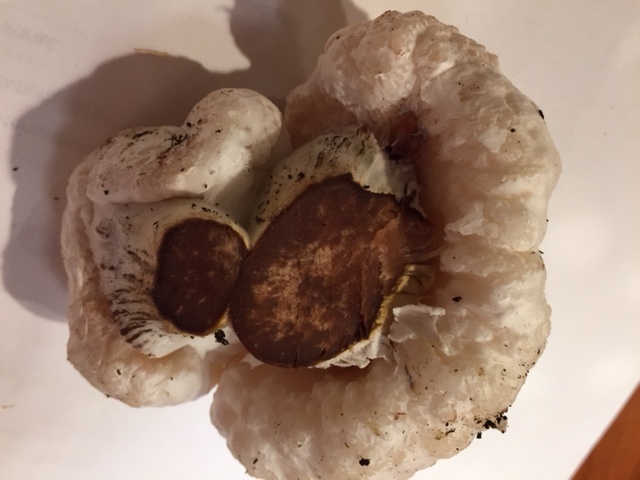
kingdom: Fungi
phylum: Basidiomycota
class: Agaricomycetes
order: Agaricales
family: Entolomataceae
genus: Entoloma
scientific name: Entoloma abortivum
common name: Aborted entoloma
